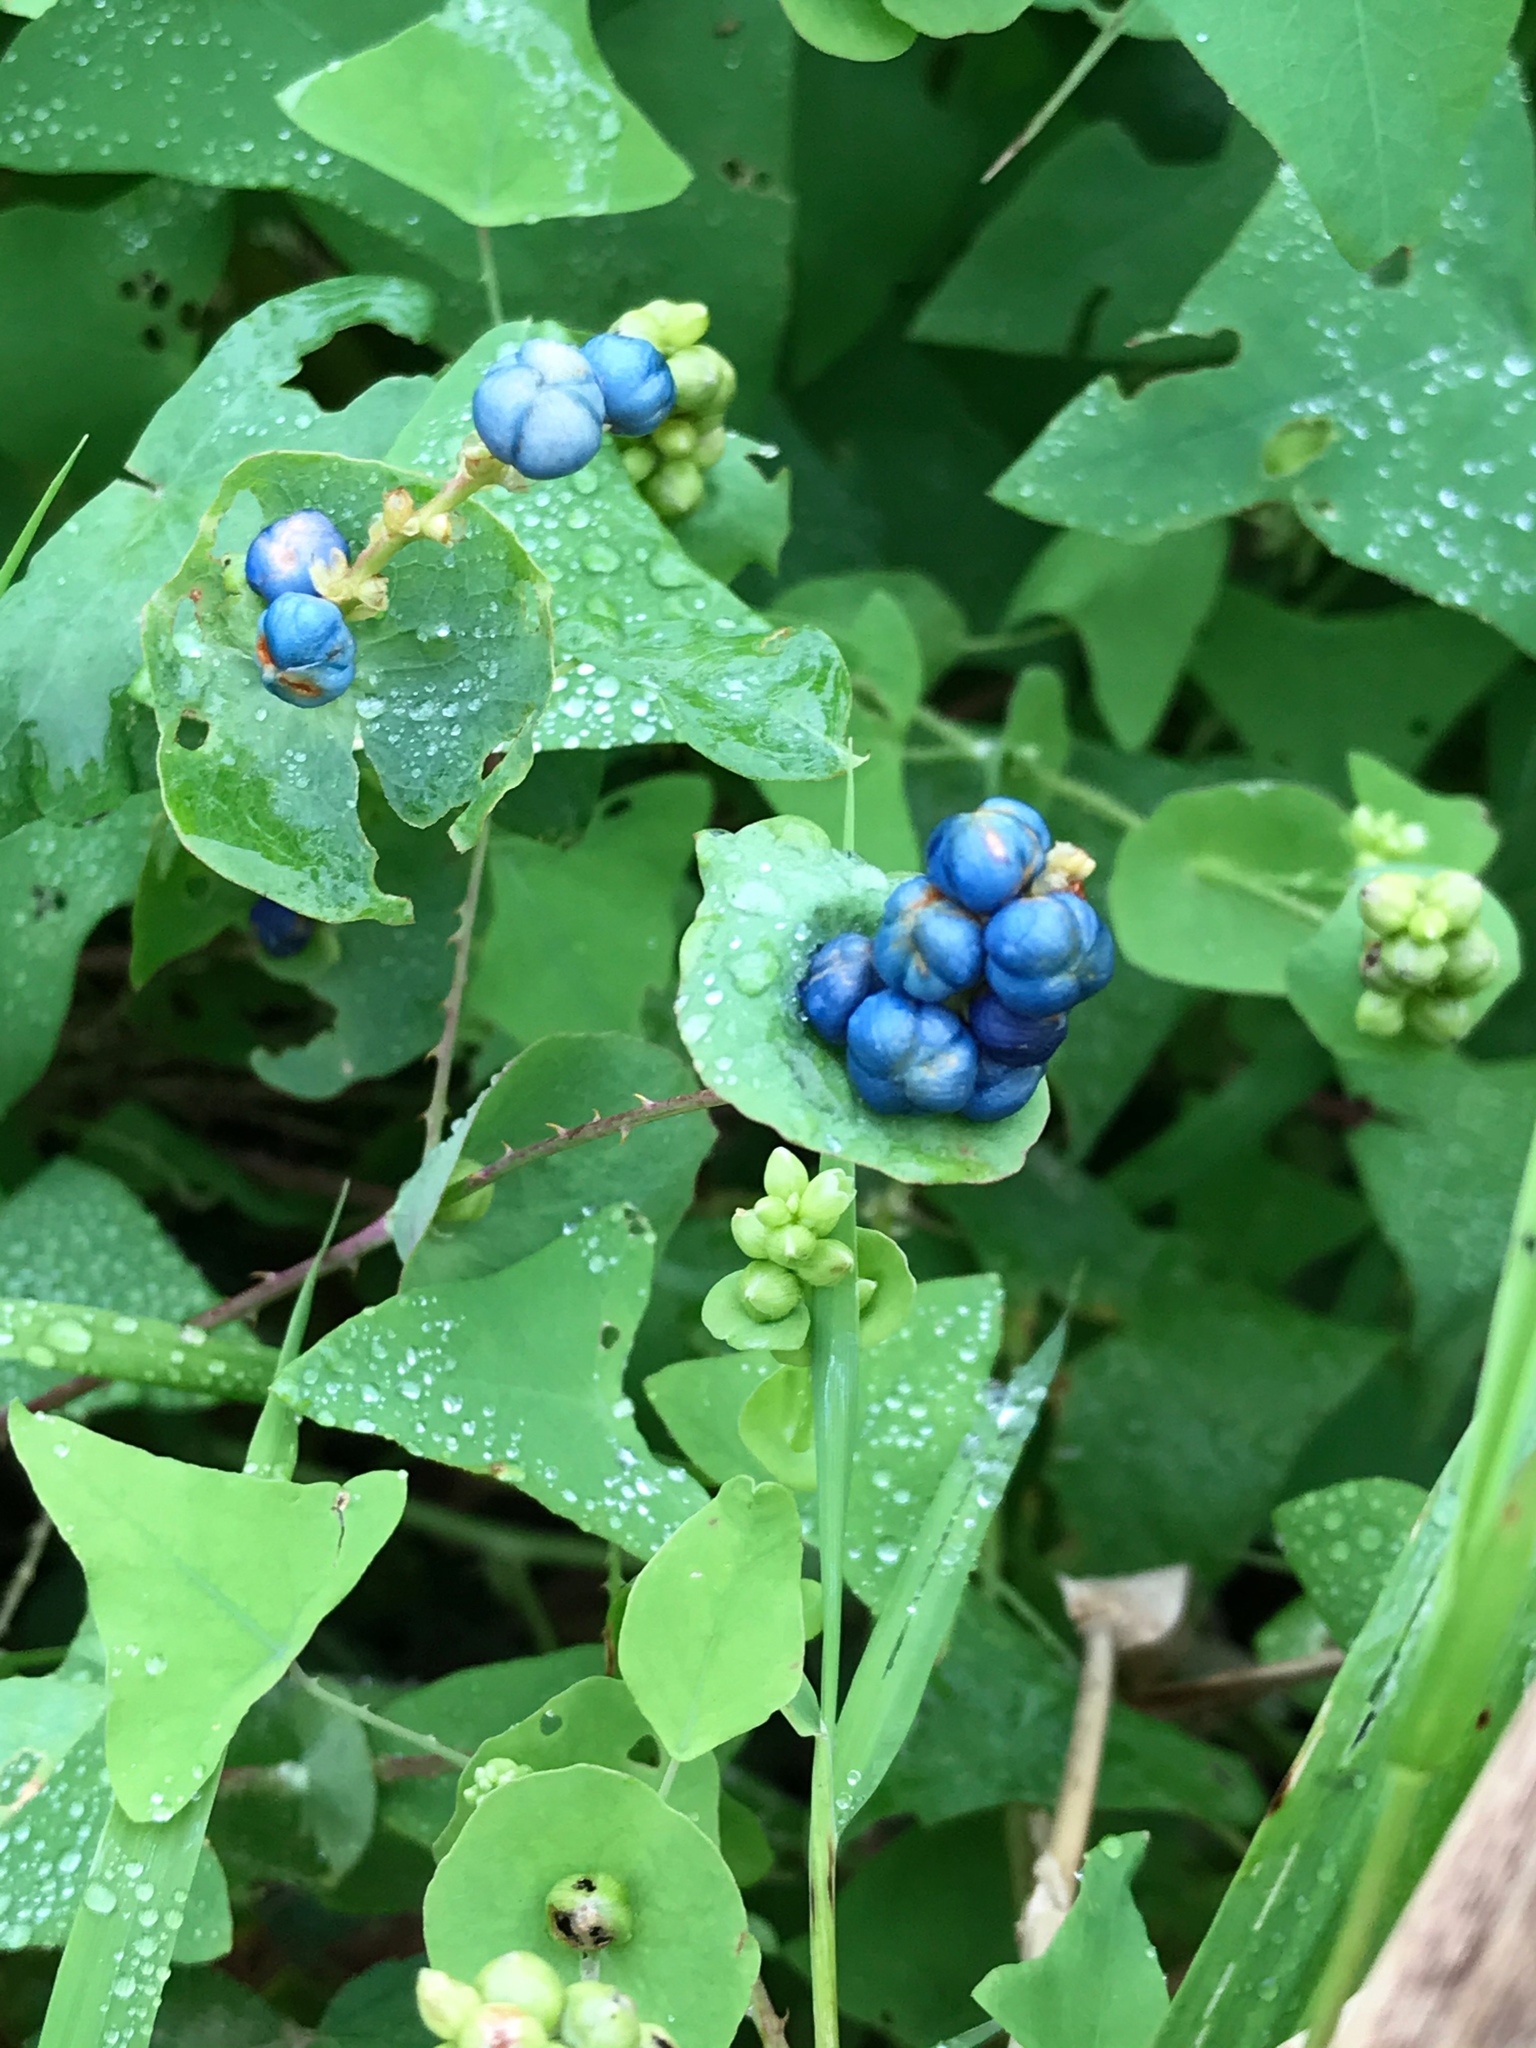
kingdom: Plantae
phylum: Tracheophyta
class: Magnoliopsida
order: Caryophyllales
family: Polygonaceae
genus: Persicaria
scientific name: Persicaria perfoliata
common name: Asiatic tearthumb
